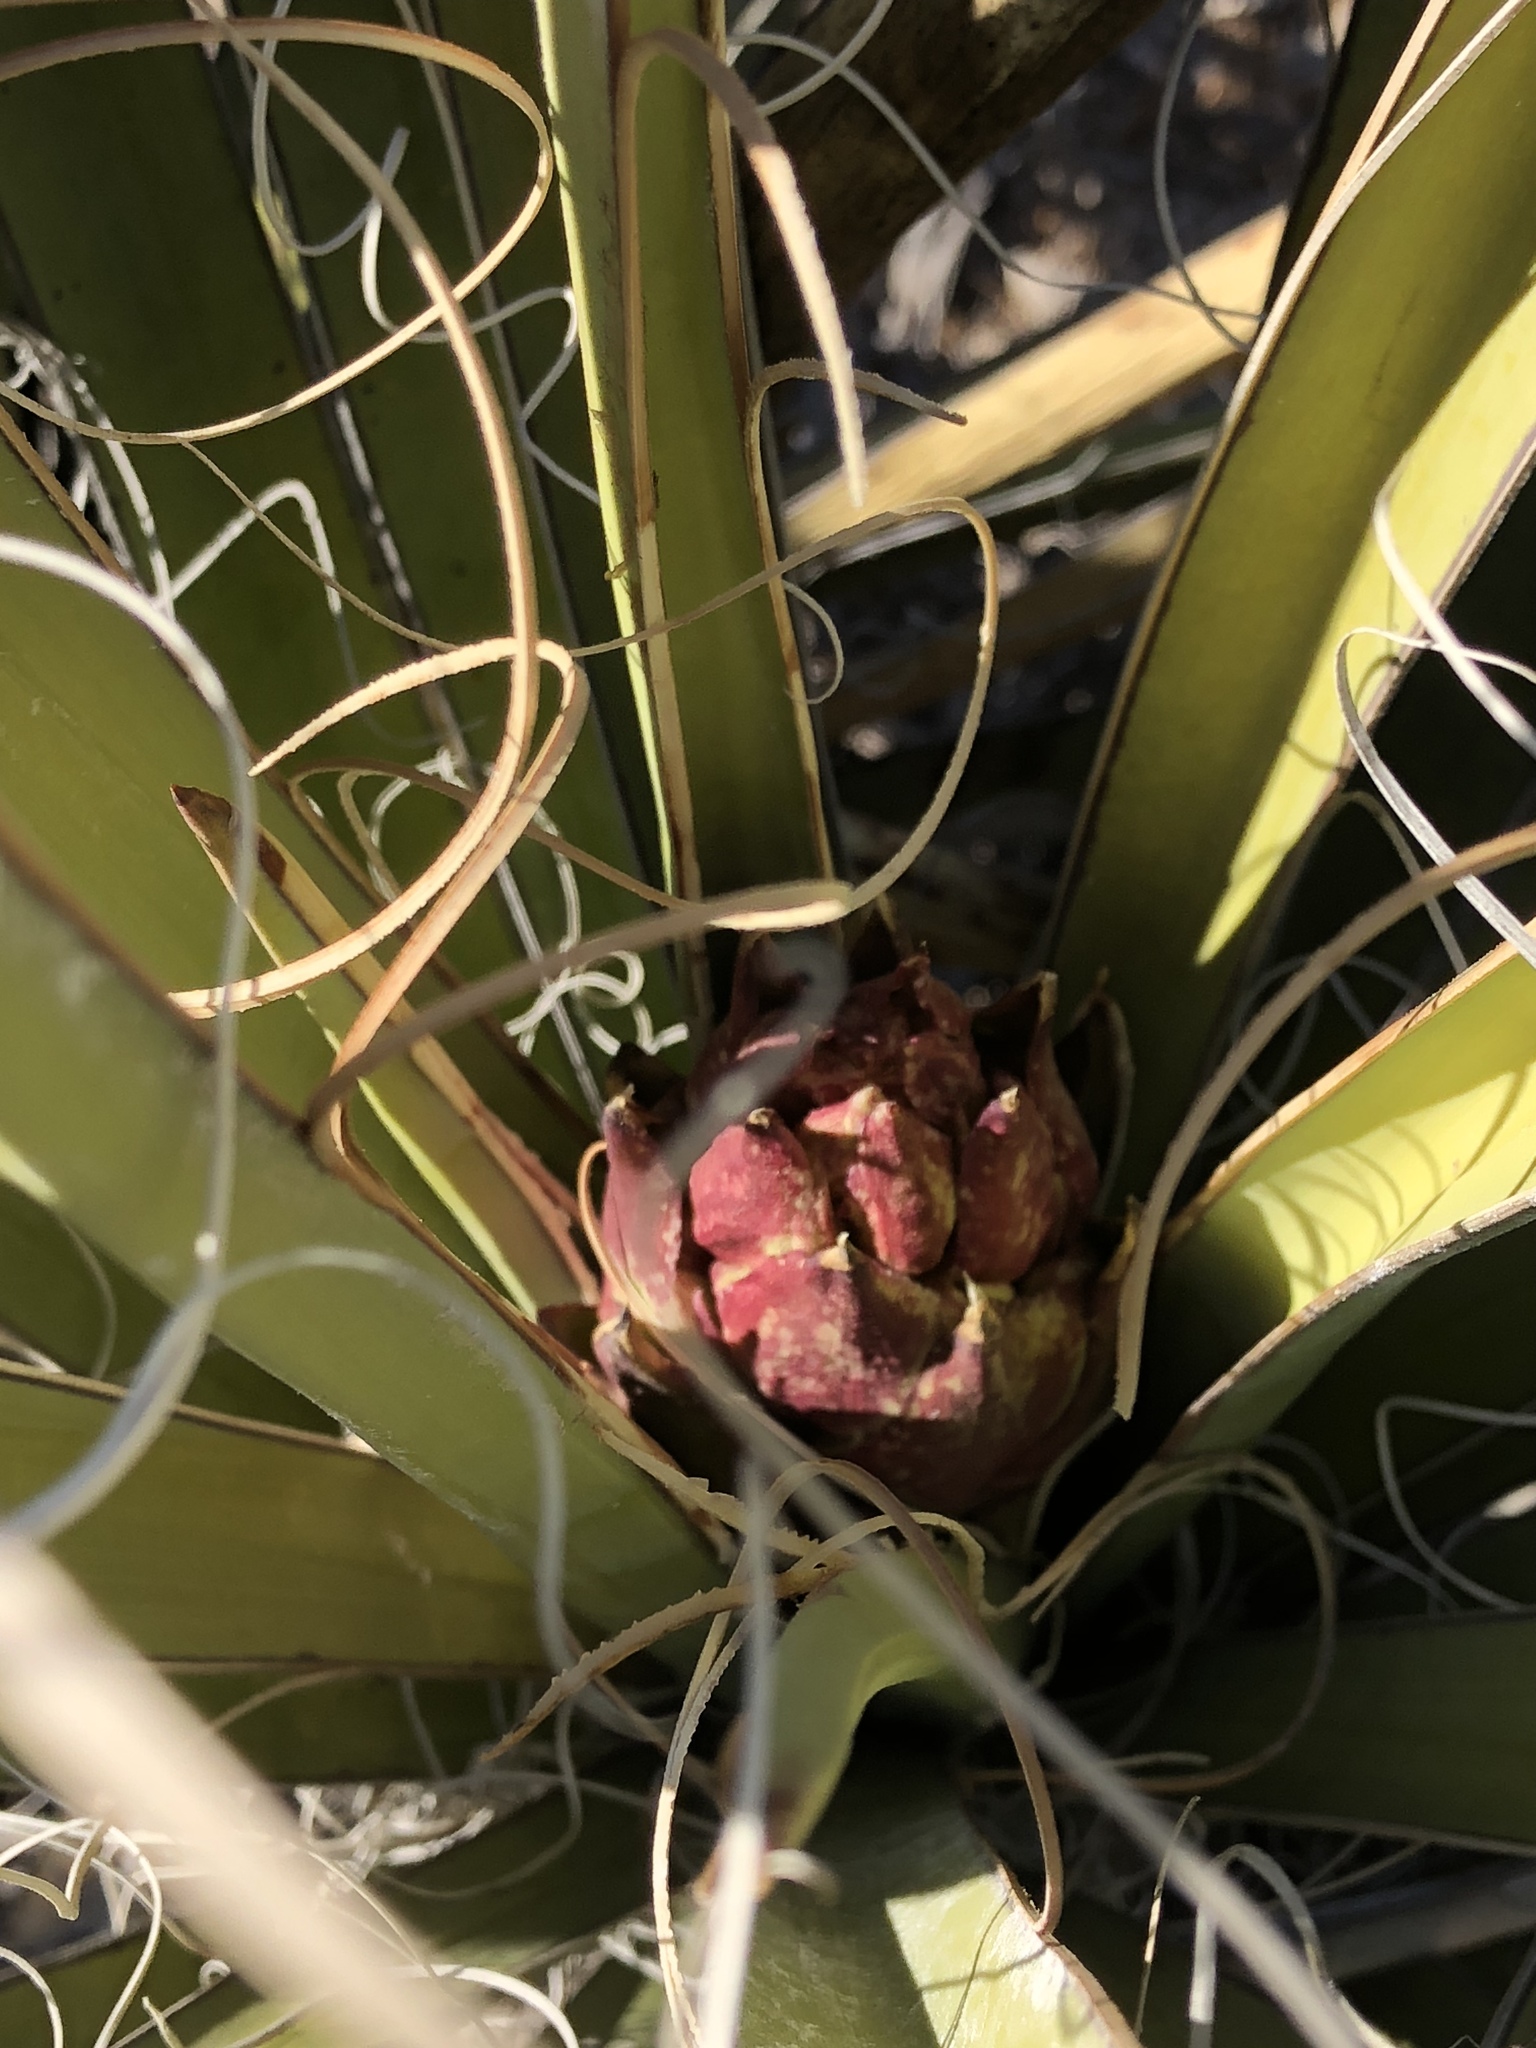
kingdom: Plantae
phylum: Tracheophyta
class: Liliopsida
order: Asparagales
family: Asparagaceae
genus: Yucca
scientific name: Yucca baccata
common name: Banana yucca
